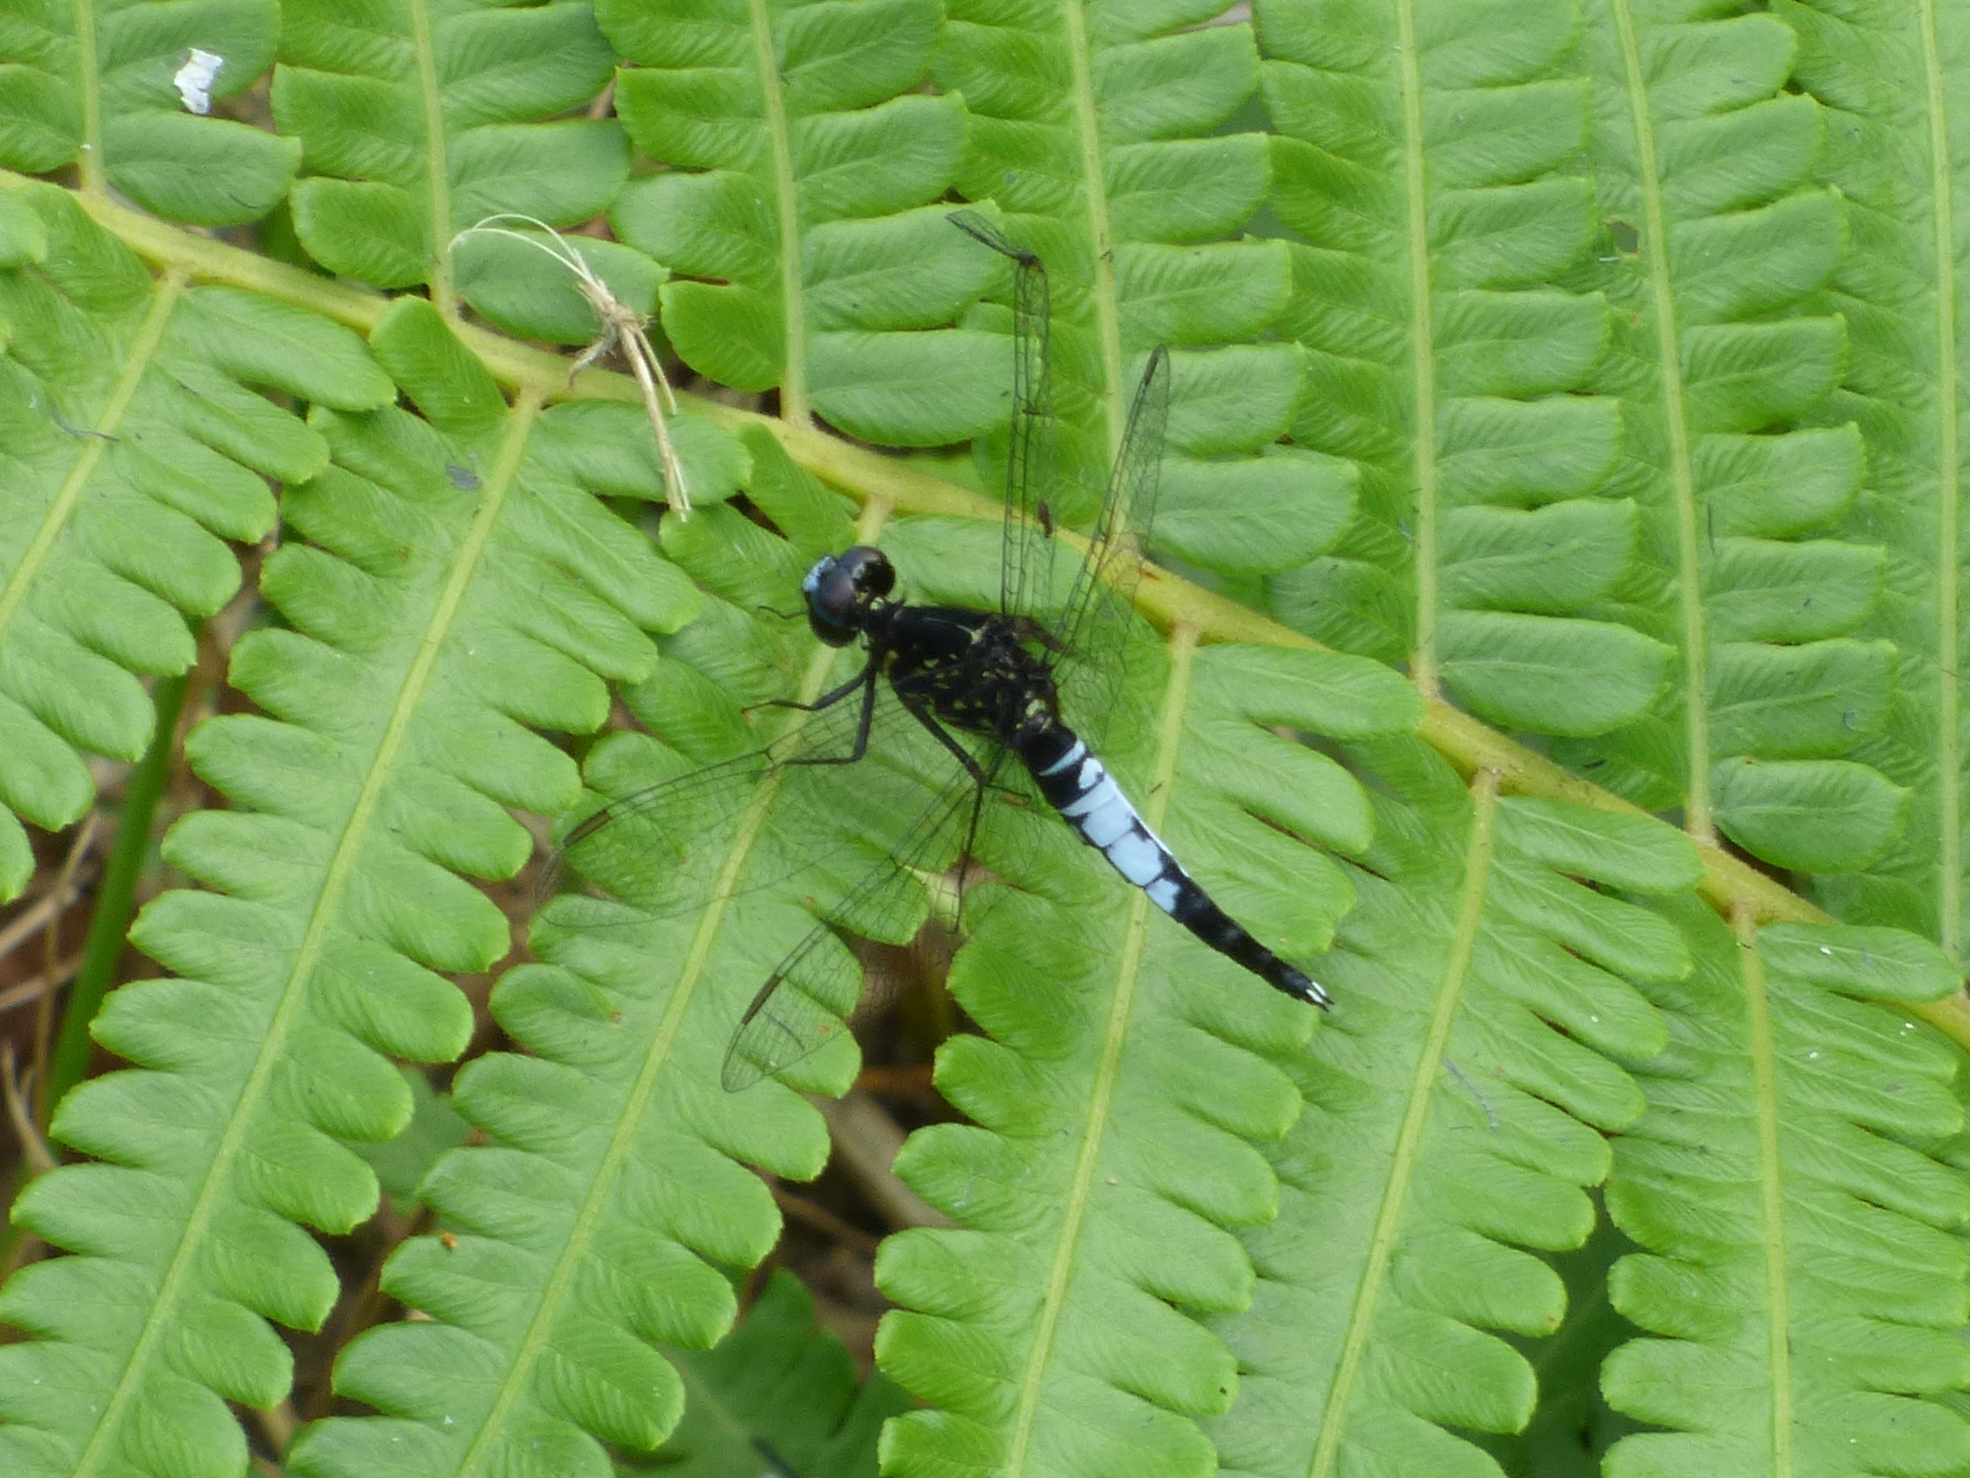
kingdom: Animalia
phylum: Arthropoda
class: Insecta
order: Odonata
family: Libellulidae
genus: Acisoma
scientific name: Acisoma trifidum
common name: Ivory pintail
